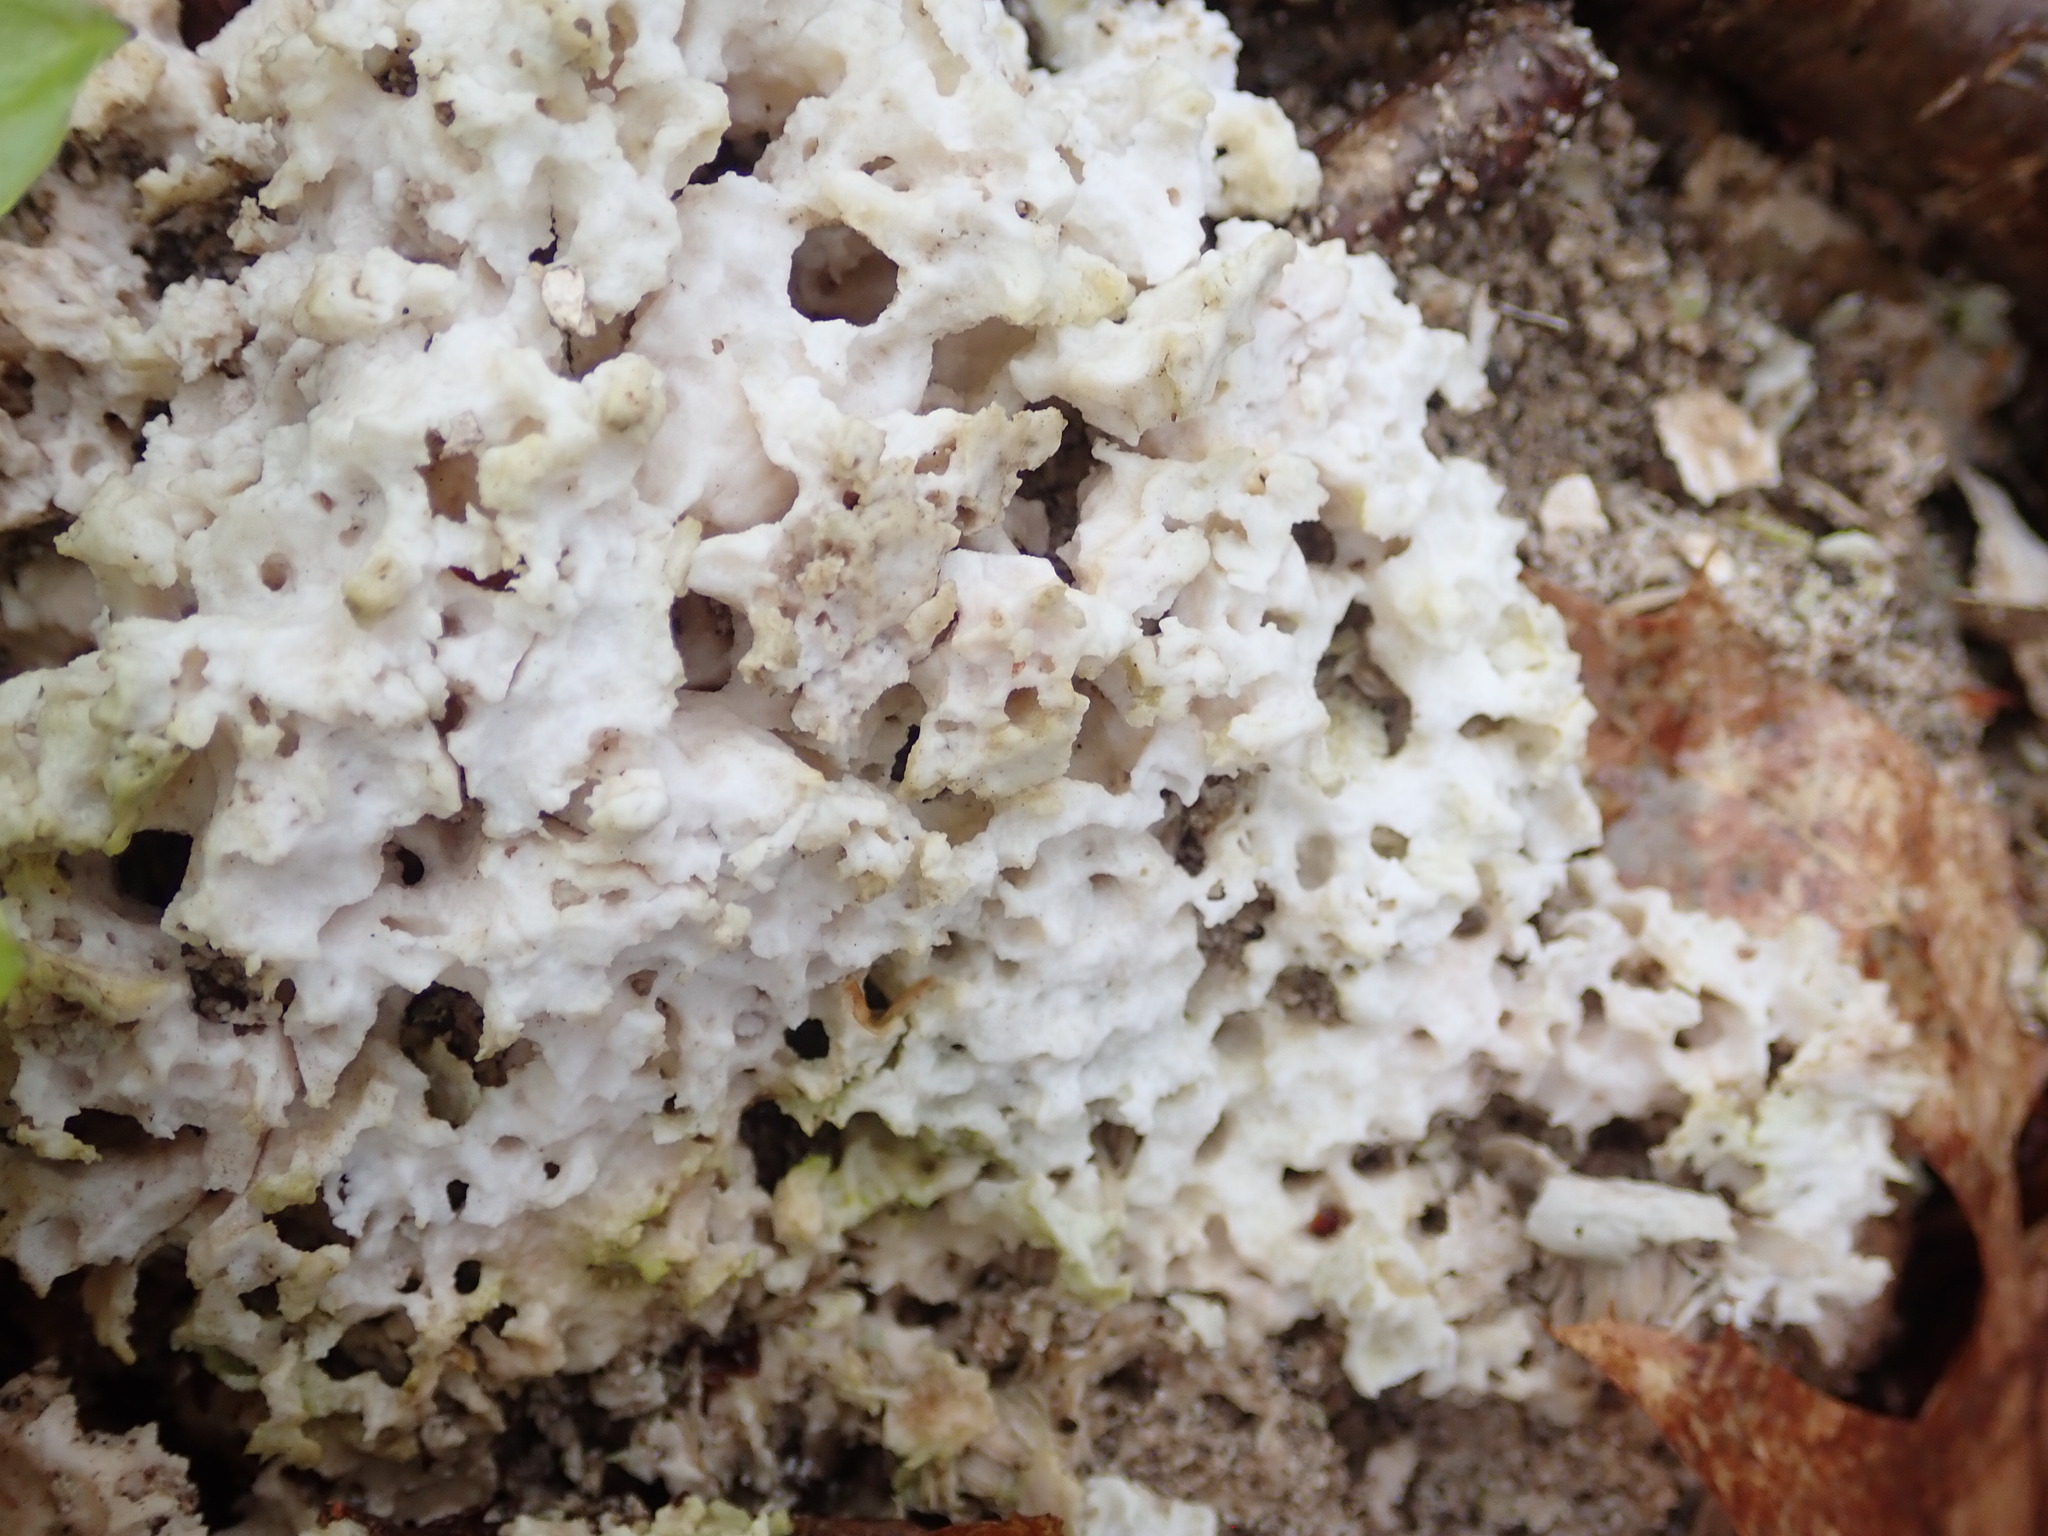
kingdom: Fungi
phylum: Basidiomycota
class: Agaricomycetes
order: Polyporales
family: Fomitopsidaceae
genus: Fomitopsis
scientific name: Fomitopsis betulina
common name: Birch polypore
